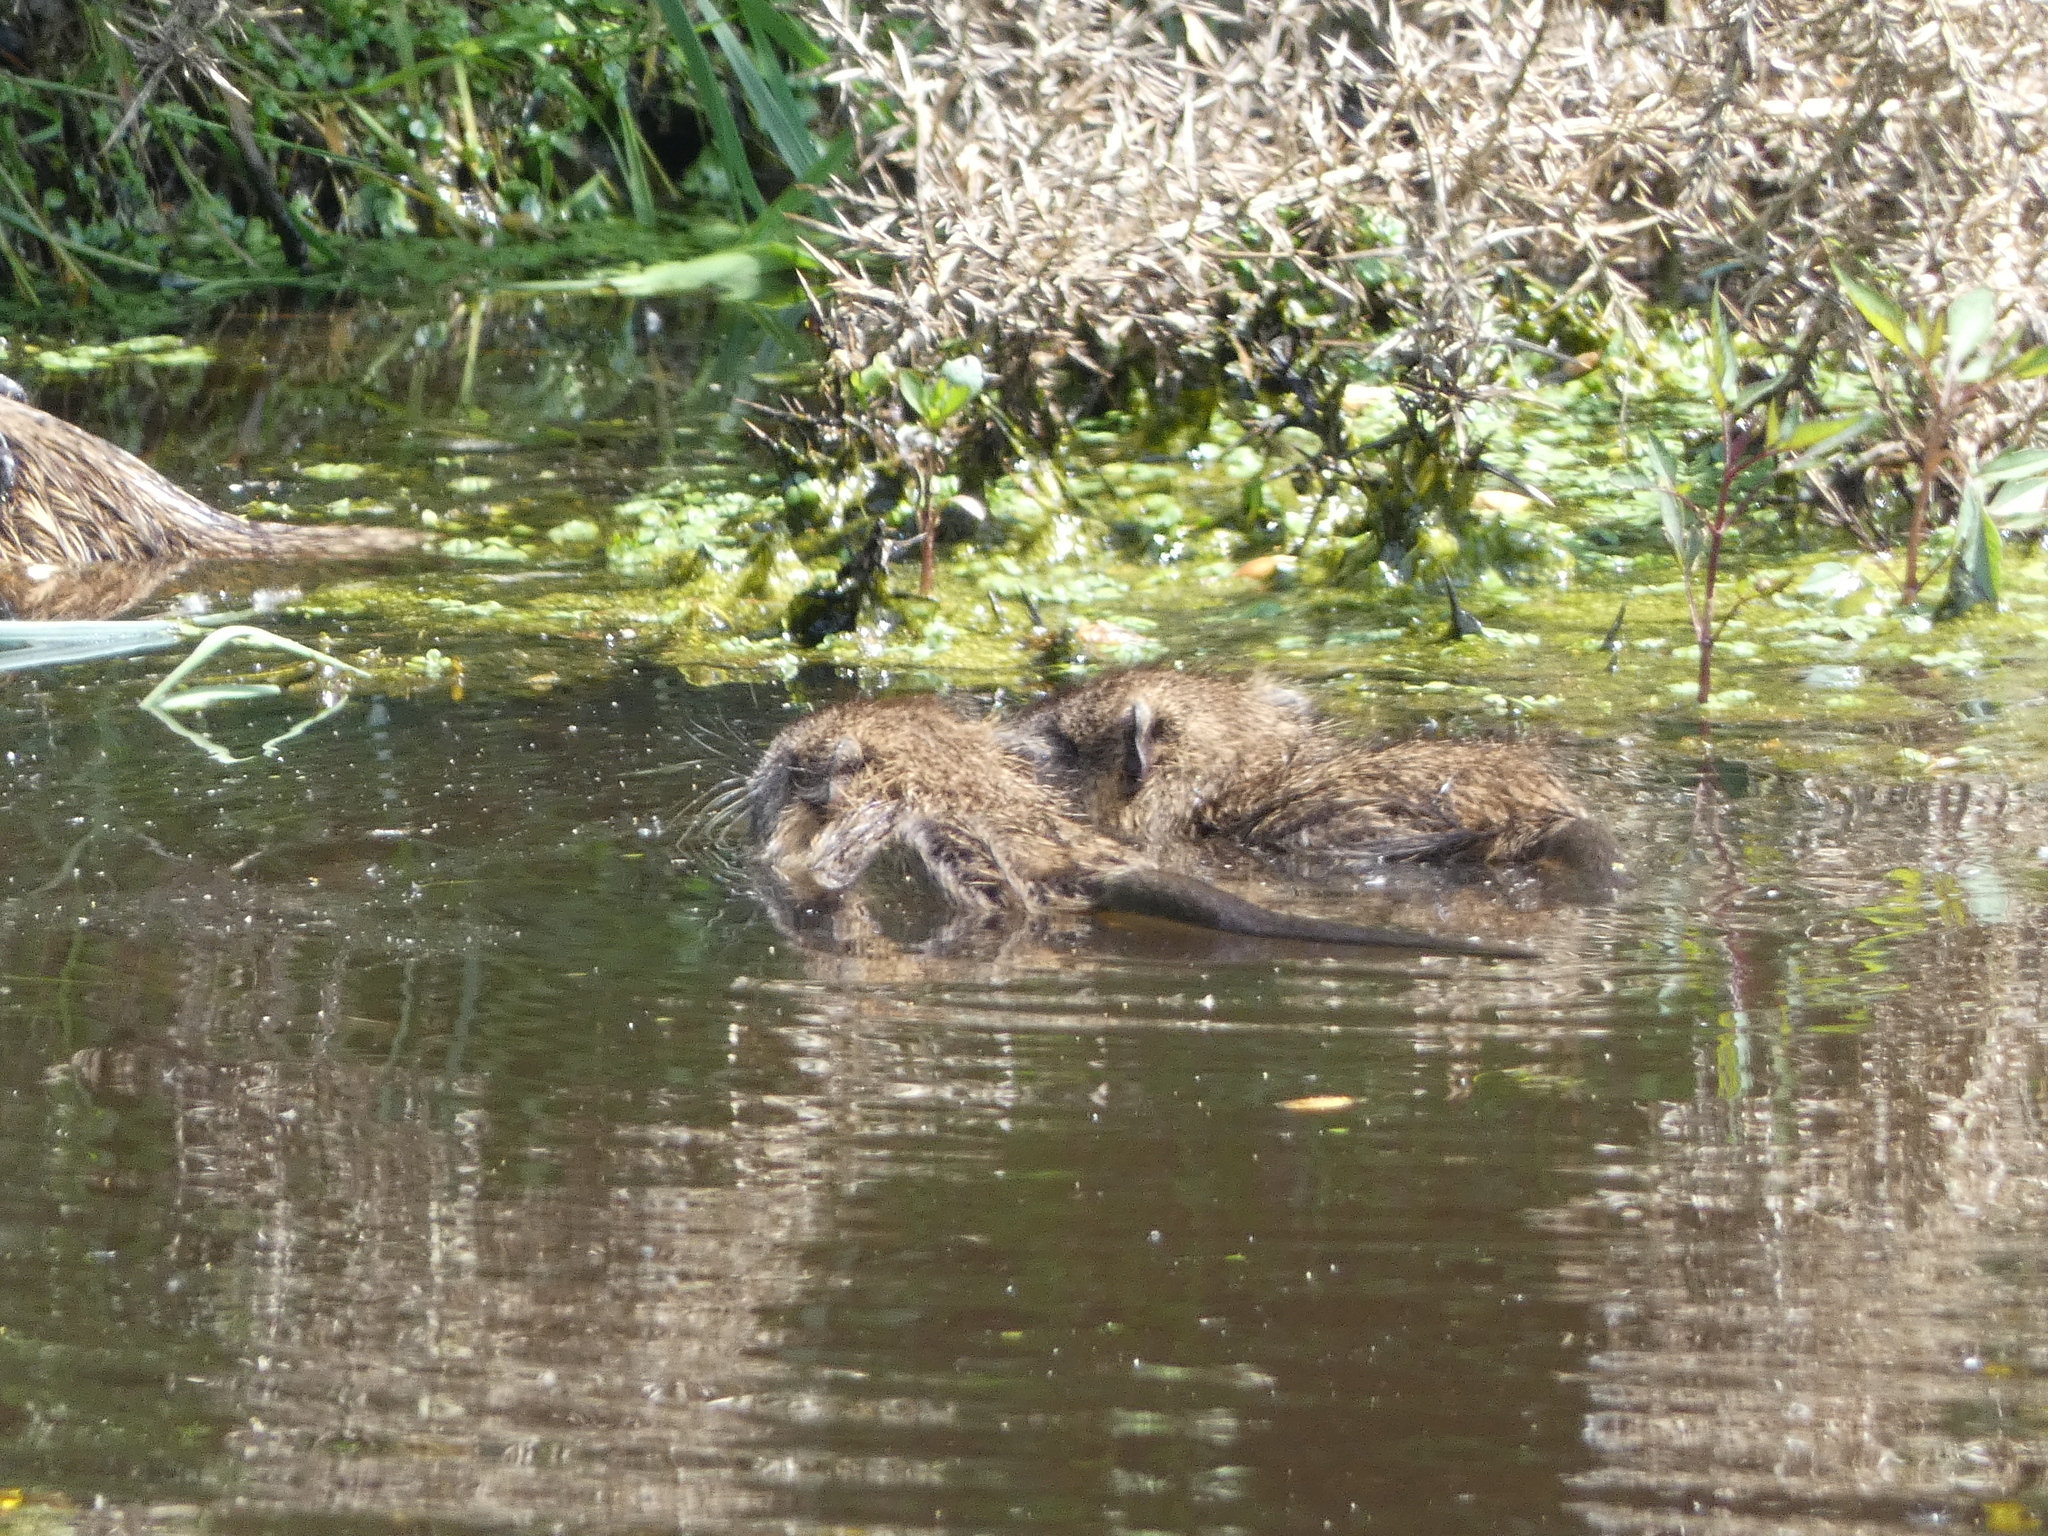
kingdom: Animalia
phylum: Chordata
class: Mammalia
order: Rodentia
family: Myocastoridae
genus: Myocastor
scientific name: Myocastor coypus
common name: Coypu
